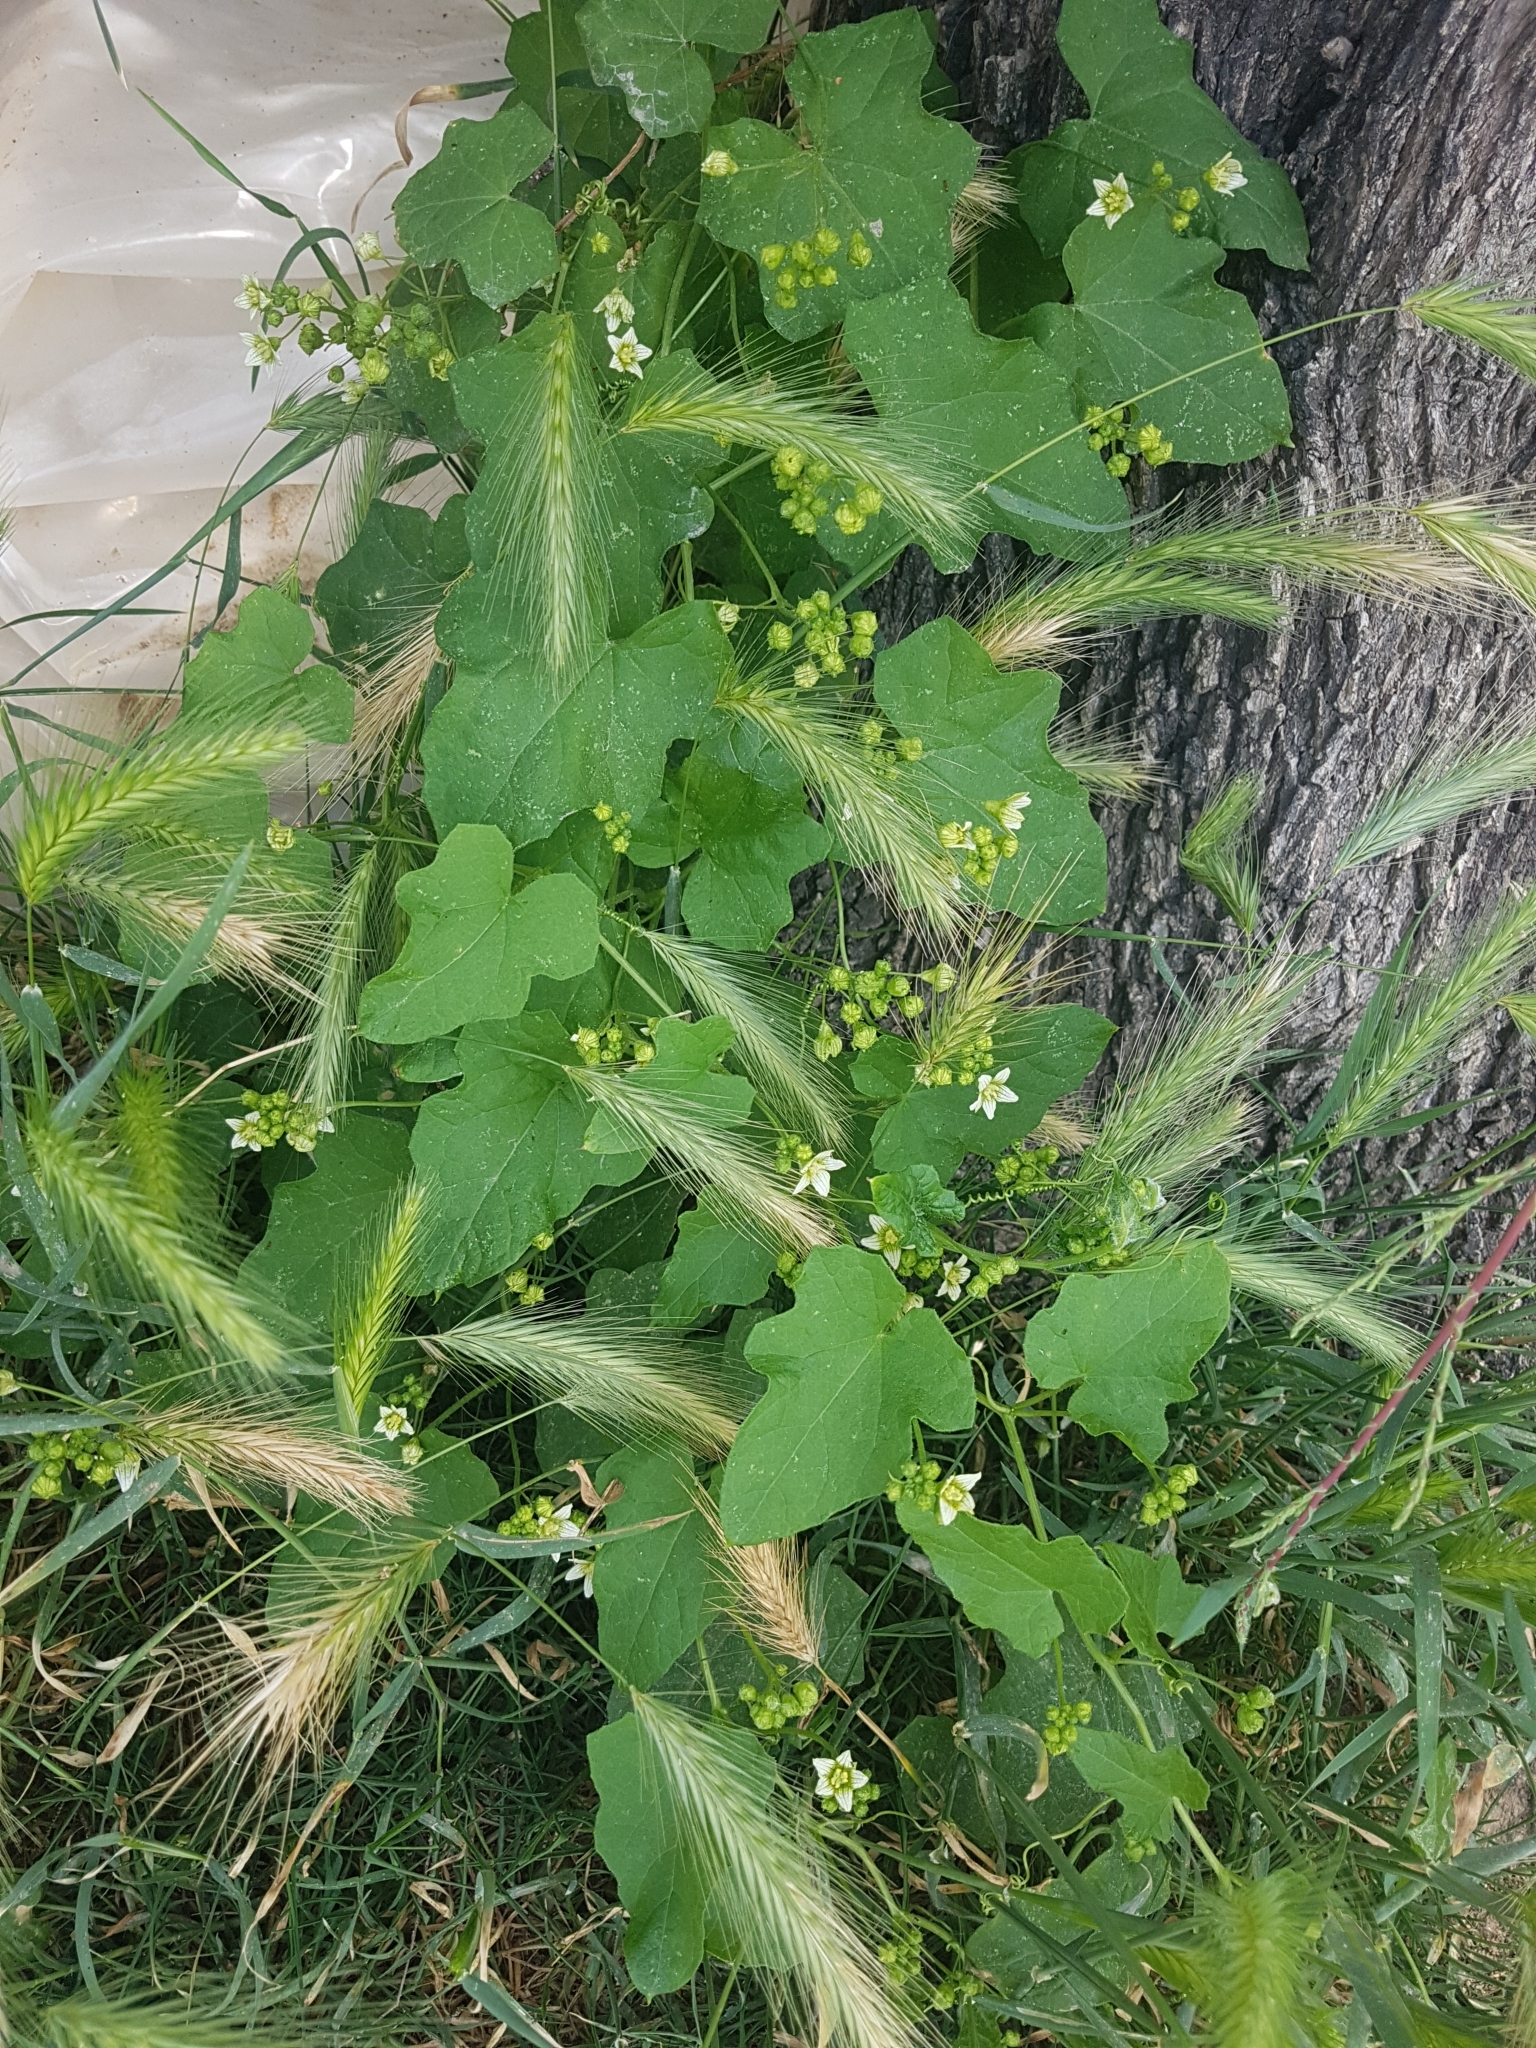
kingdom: Plantae
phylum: Tracheophyta
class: Magnoliopsida
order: Cucurbitales
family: Cucurbitaceae
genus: Bryonia
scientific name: Bryonia cretica
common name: Cretan bryony
